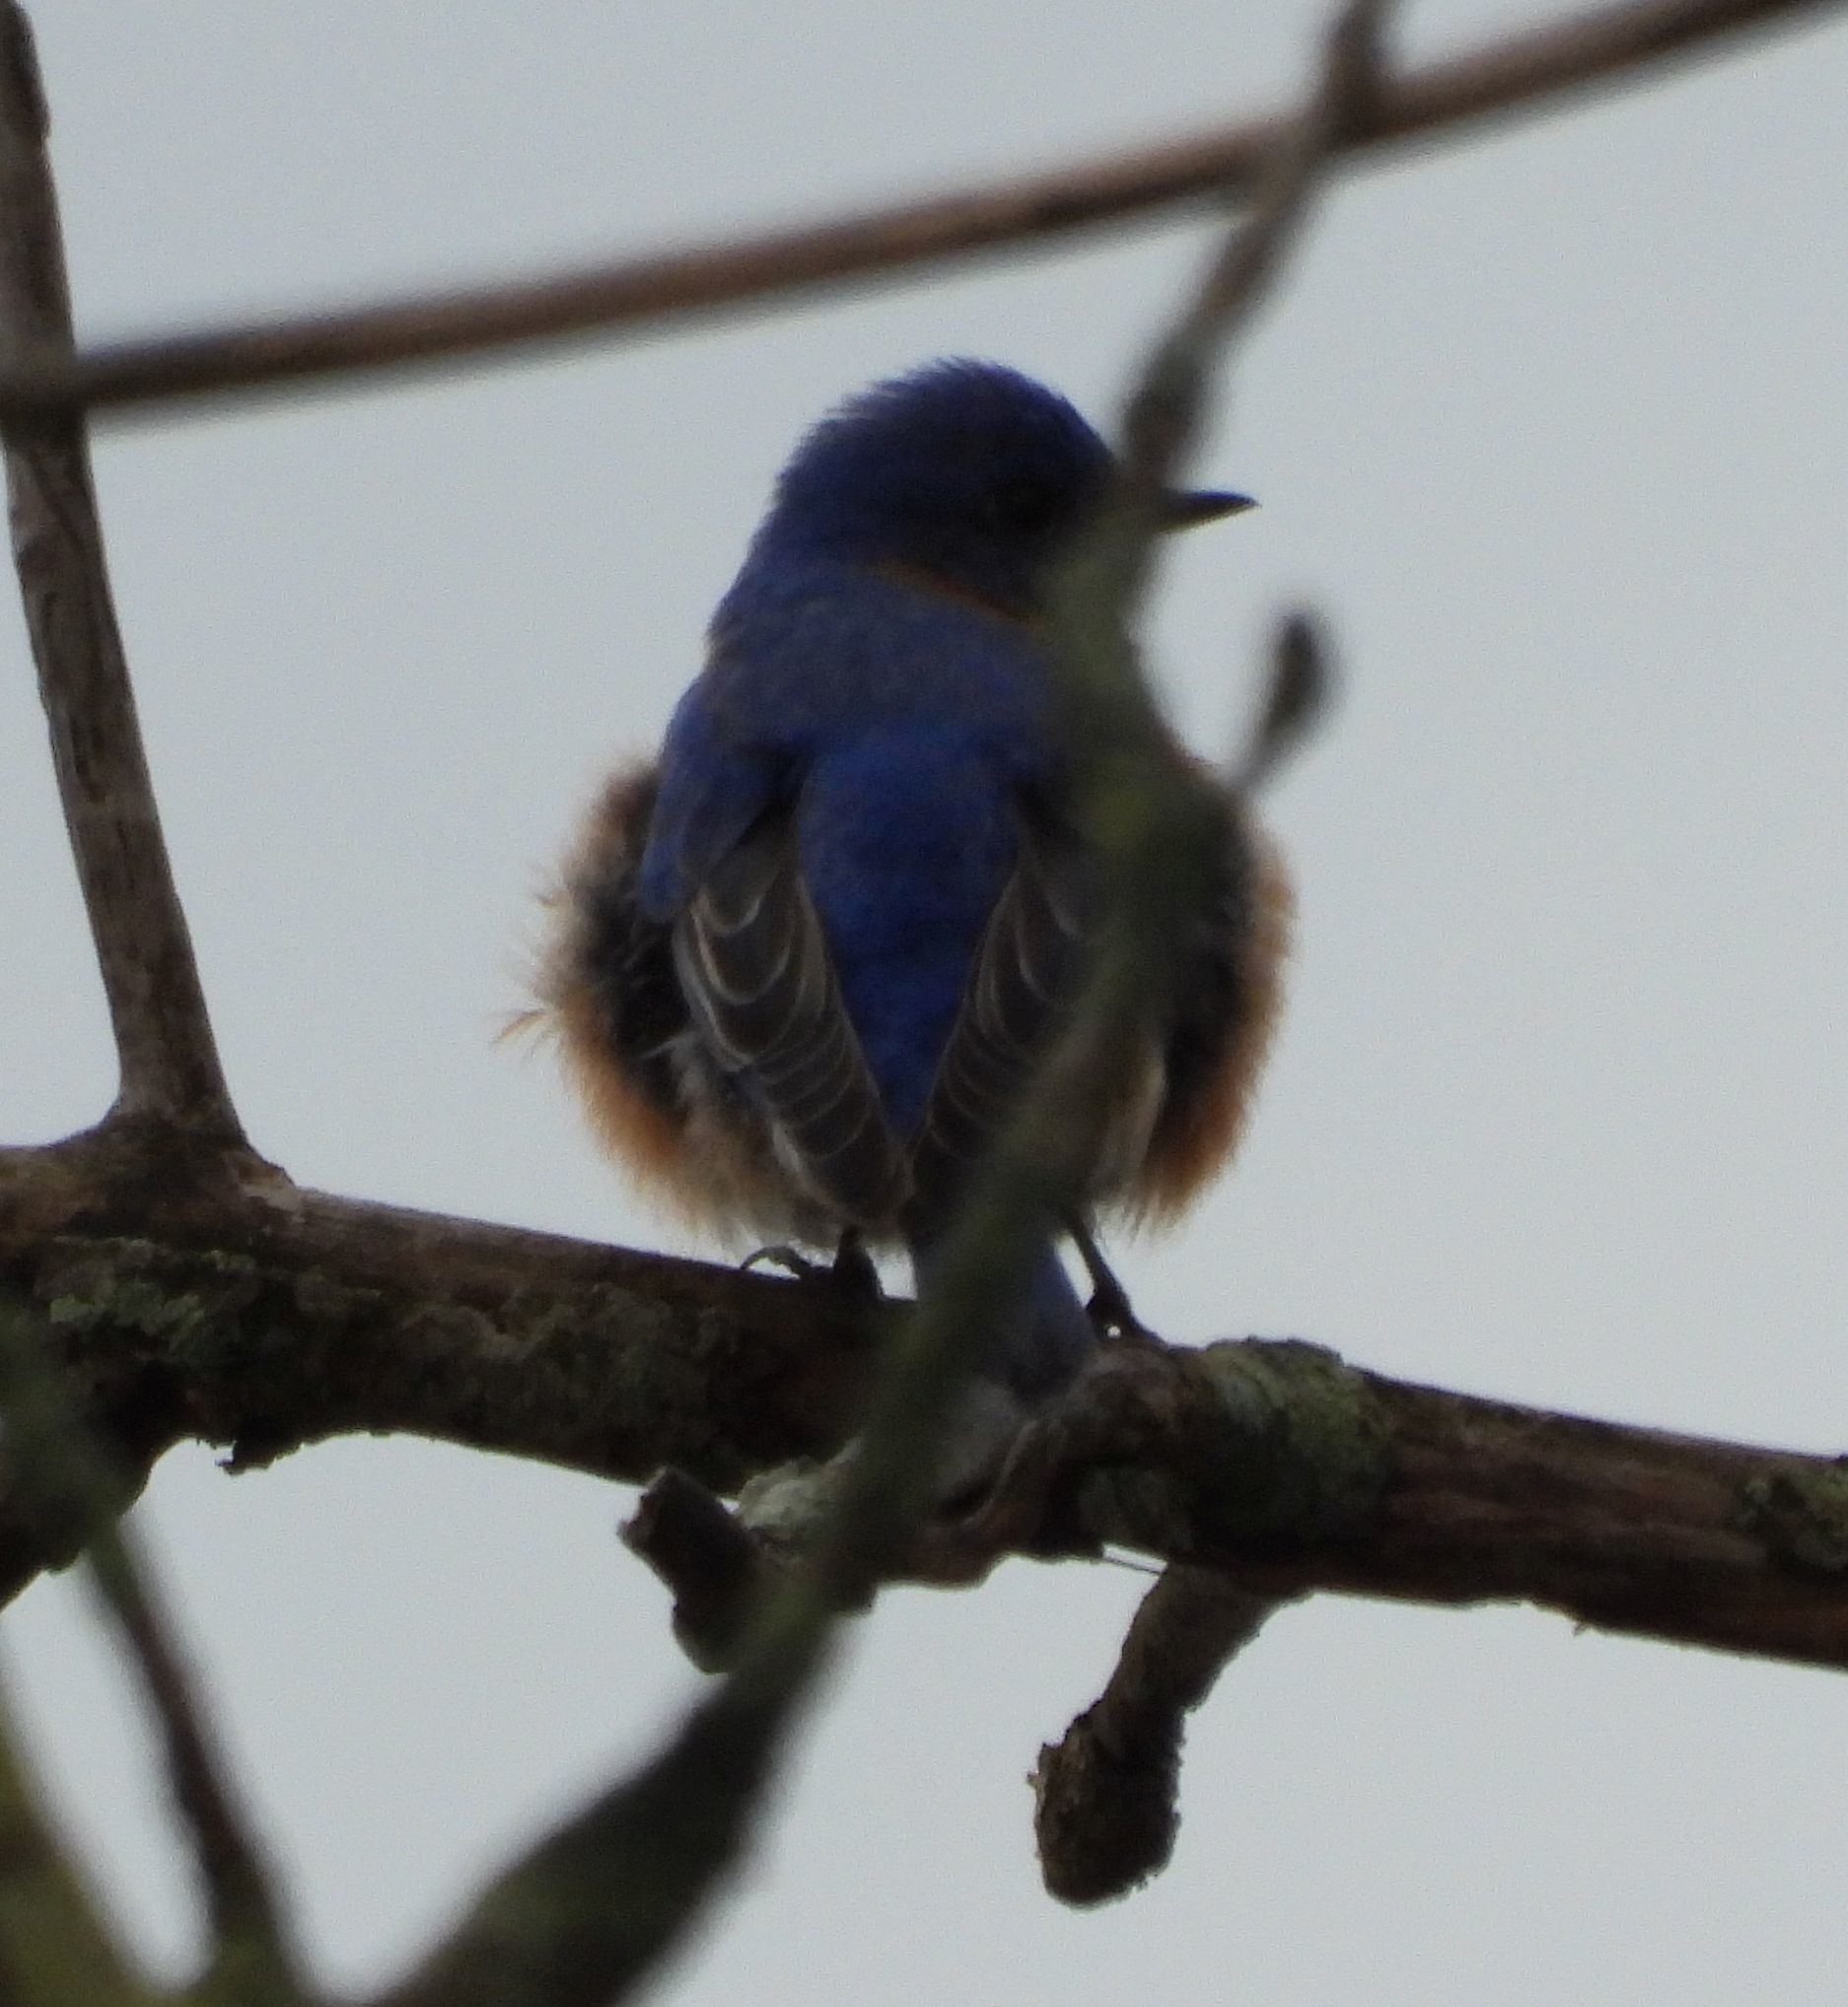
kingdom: Animalia
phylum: Chordata
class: Aves
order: Passeriformes
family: Turdidae
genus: Sialia
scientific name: Sialia sialis
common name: Eastern bluebird
